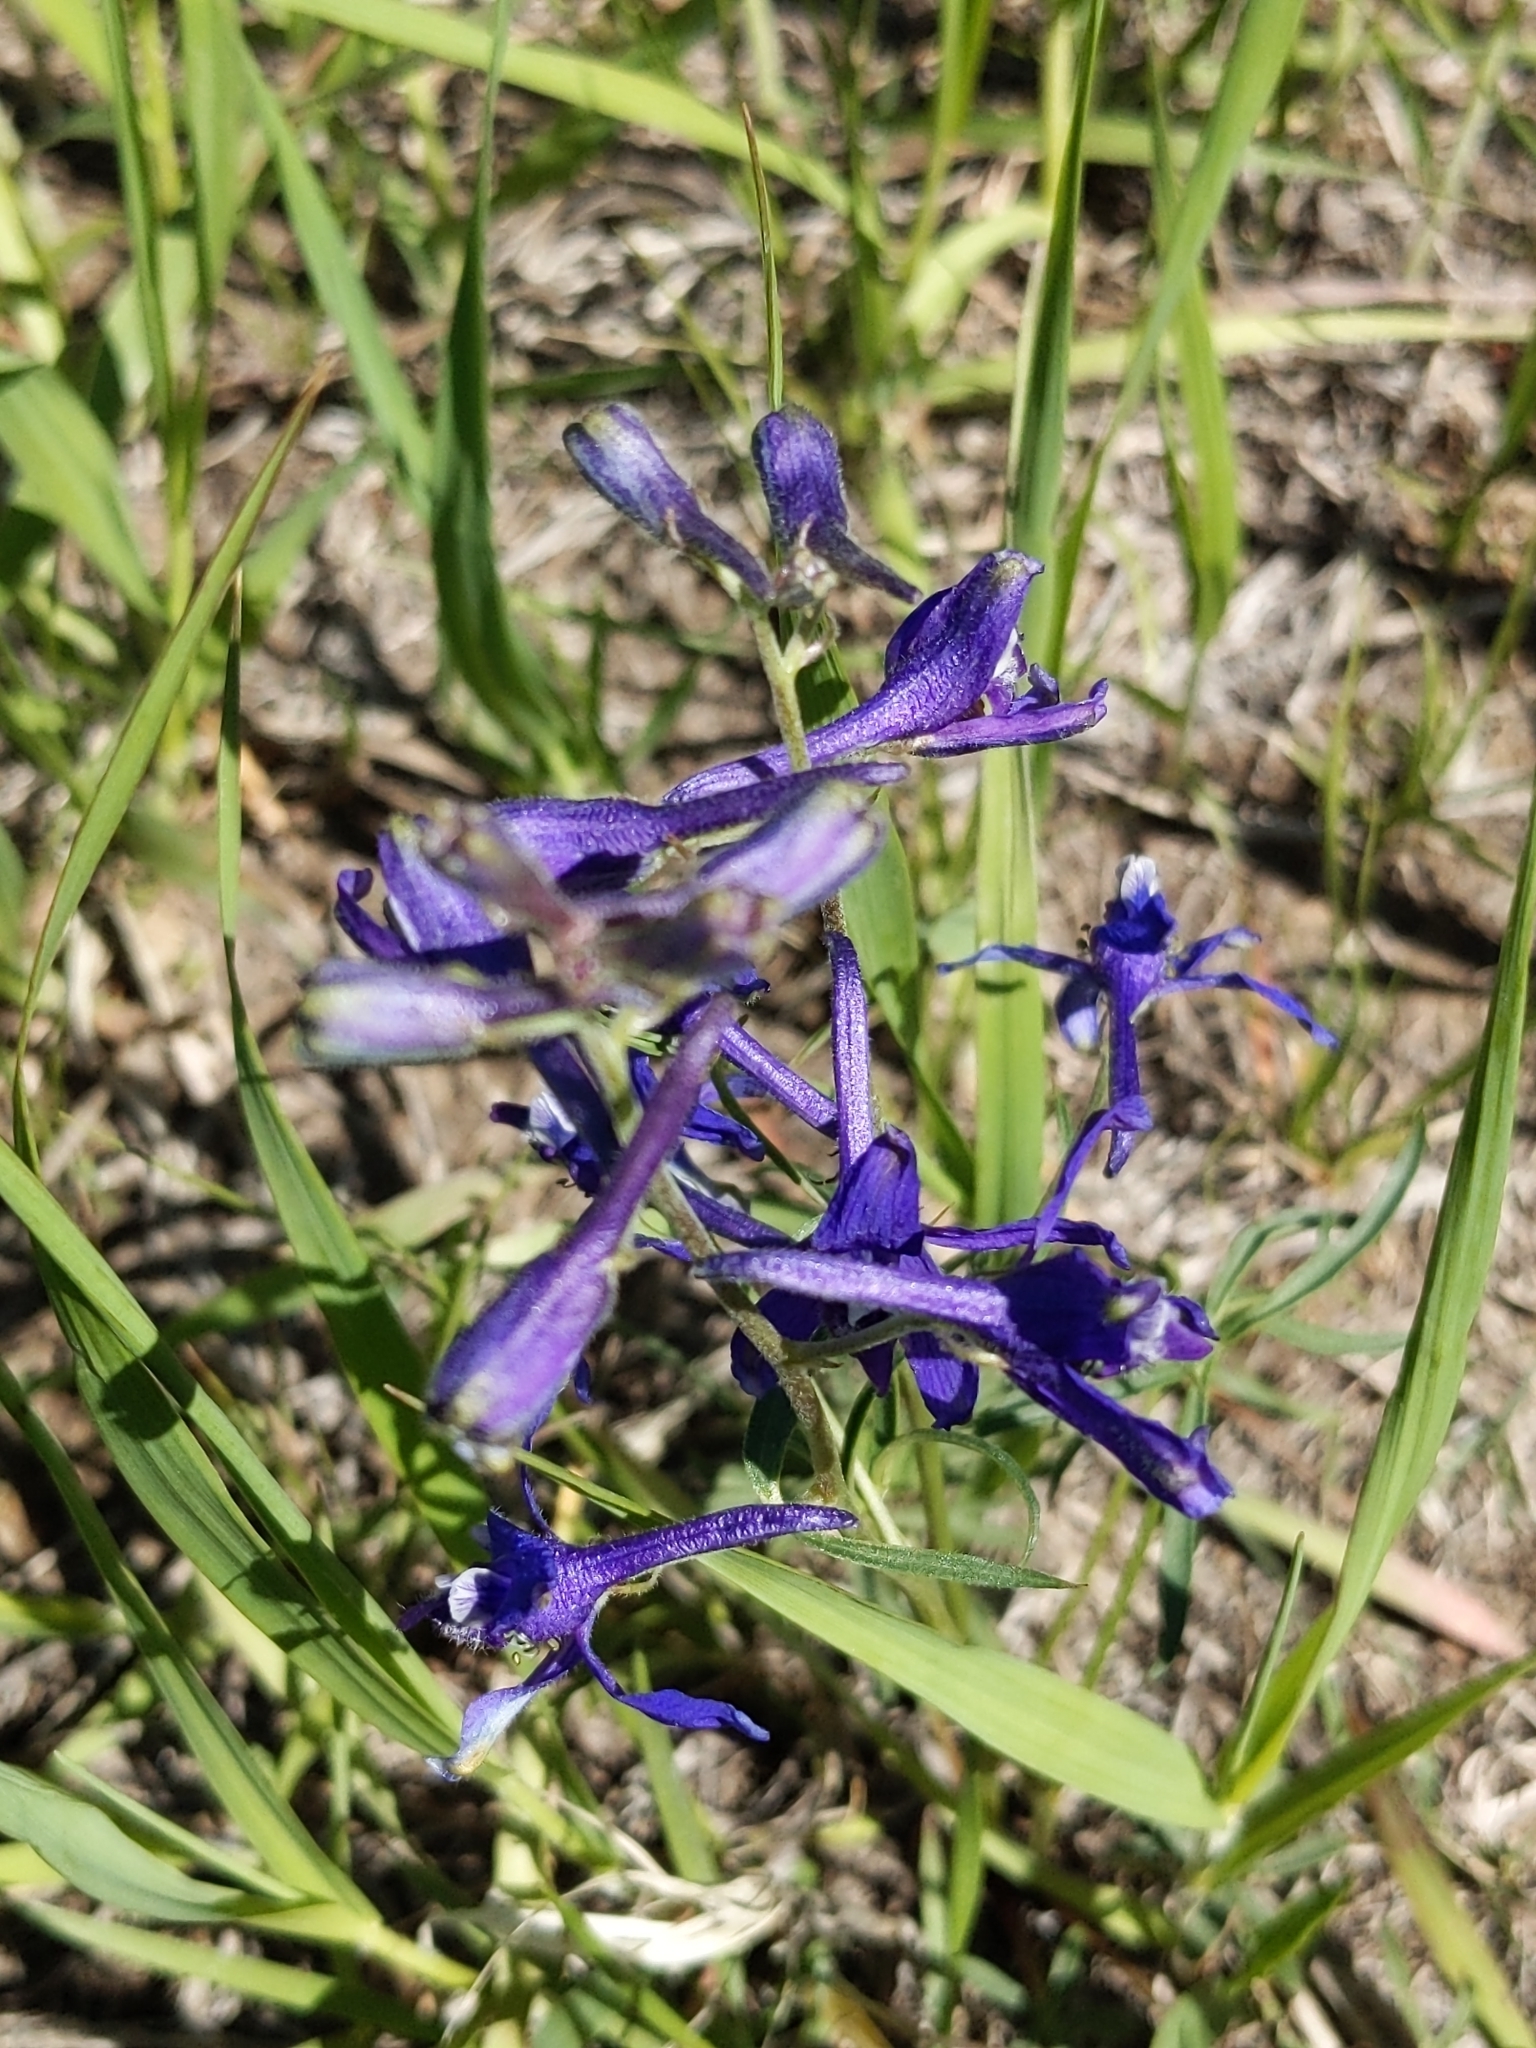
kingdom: Plantae
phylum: Tracheophyta
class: Magnoliopsida
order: Ranunculales
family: Ranunculaceae
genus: Delphinium
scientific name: Delphinium nuttallianum
